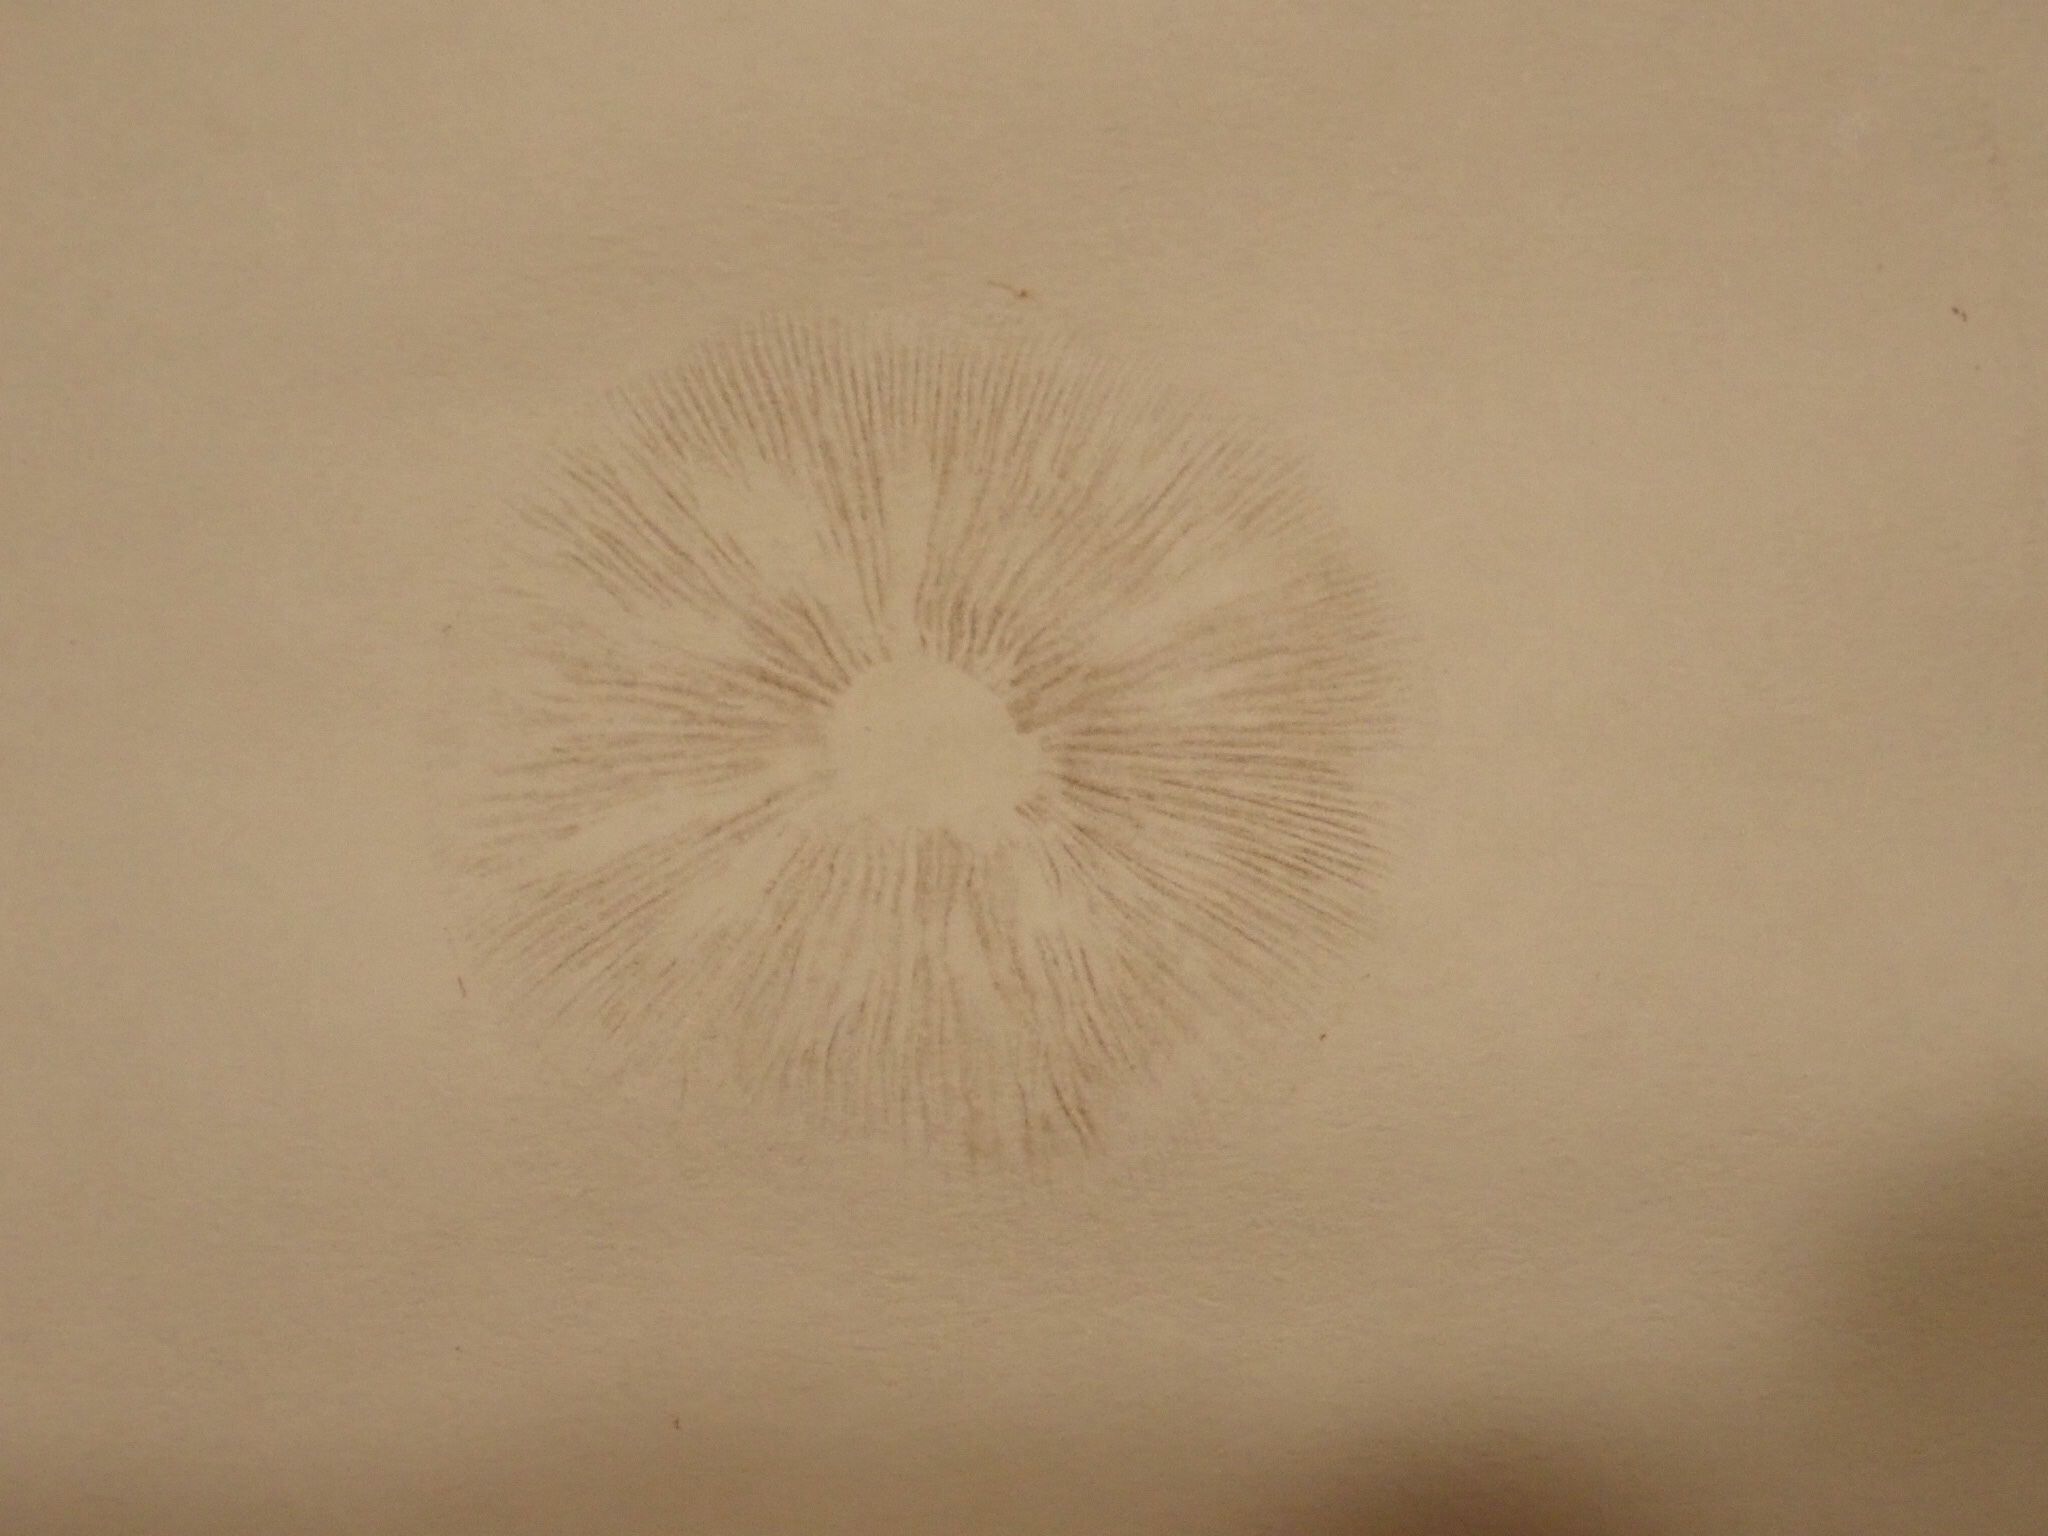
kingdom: Fungi
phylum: Basidiomycota
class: Agaricomycetes
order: Agaricales
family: Strophariaceae
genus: Leratiomyces
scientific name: Leratiomyces ceres
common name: Redlead roundhead
